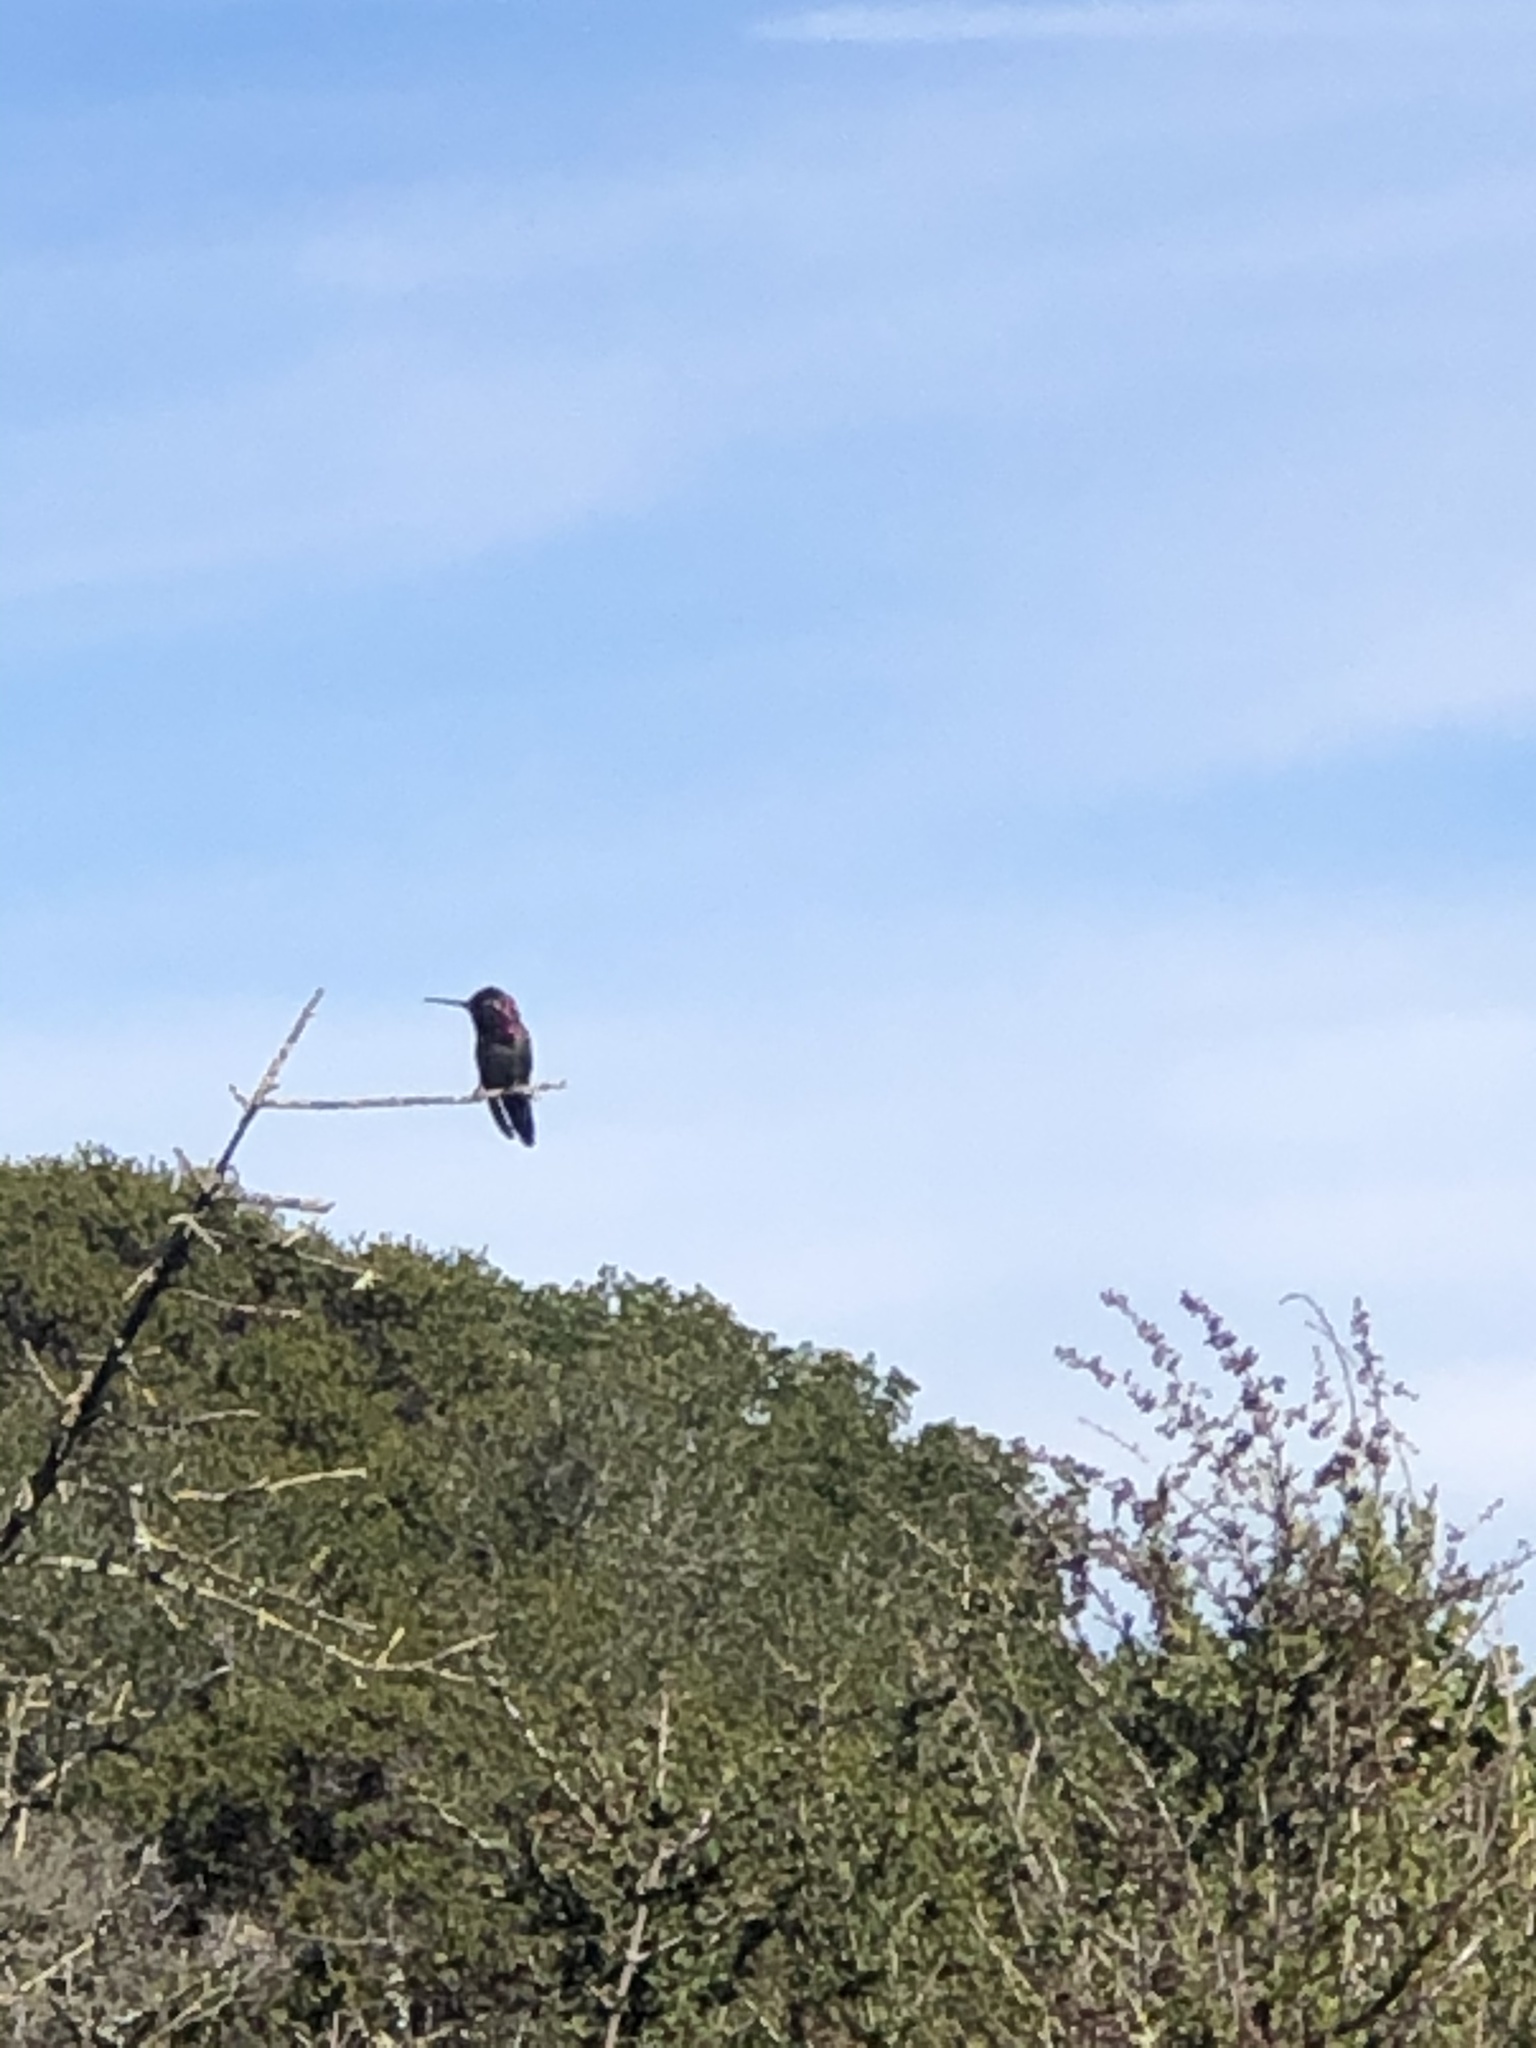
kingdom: Animalia
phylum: Chordata
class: Aves
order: Apodiformes
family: Trochilidae
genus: Calypte
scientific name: Calypte anna
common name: Anna's hummingbird
